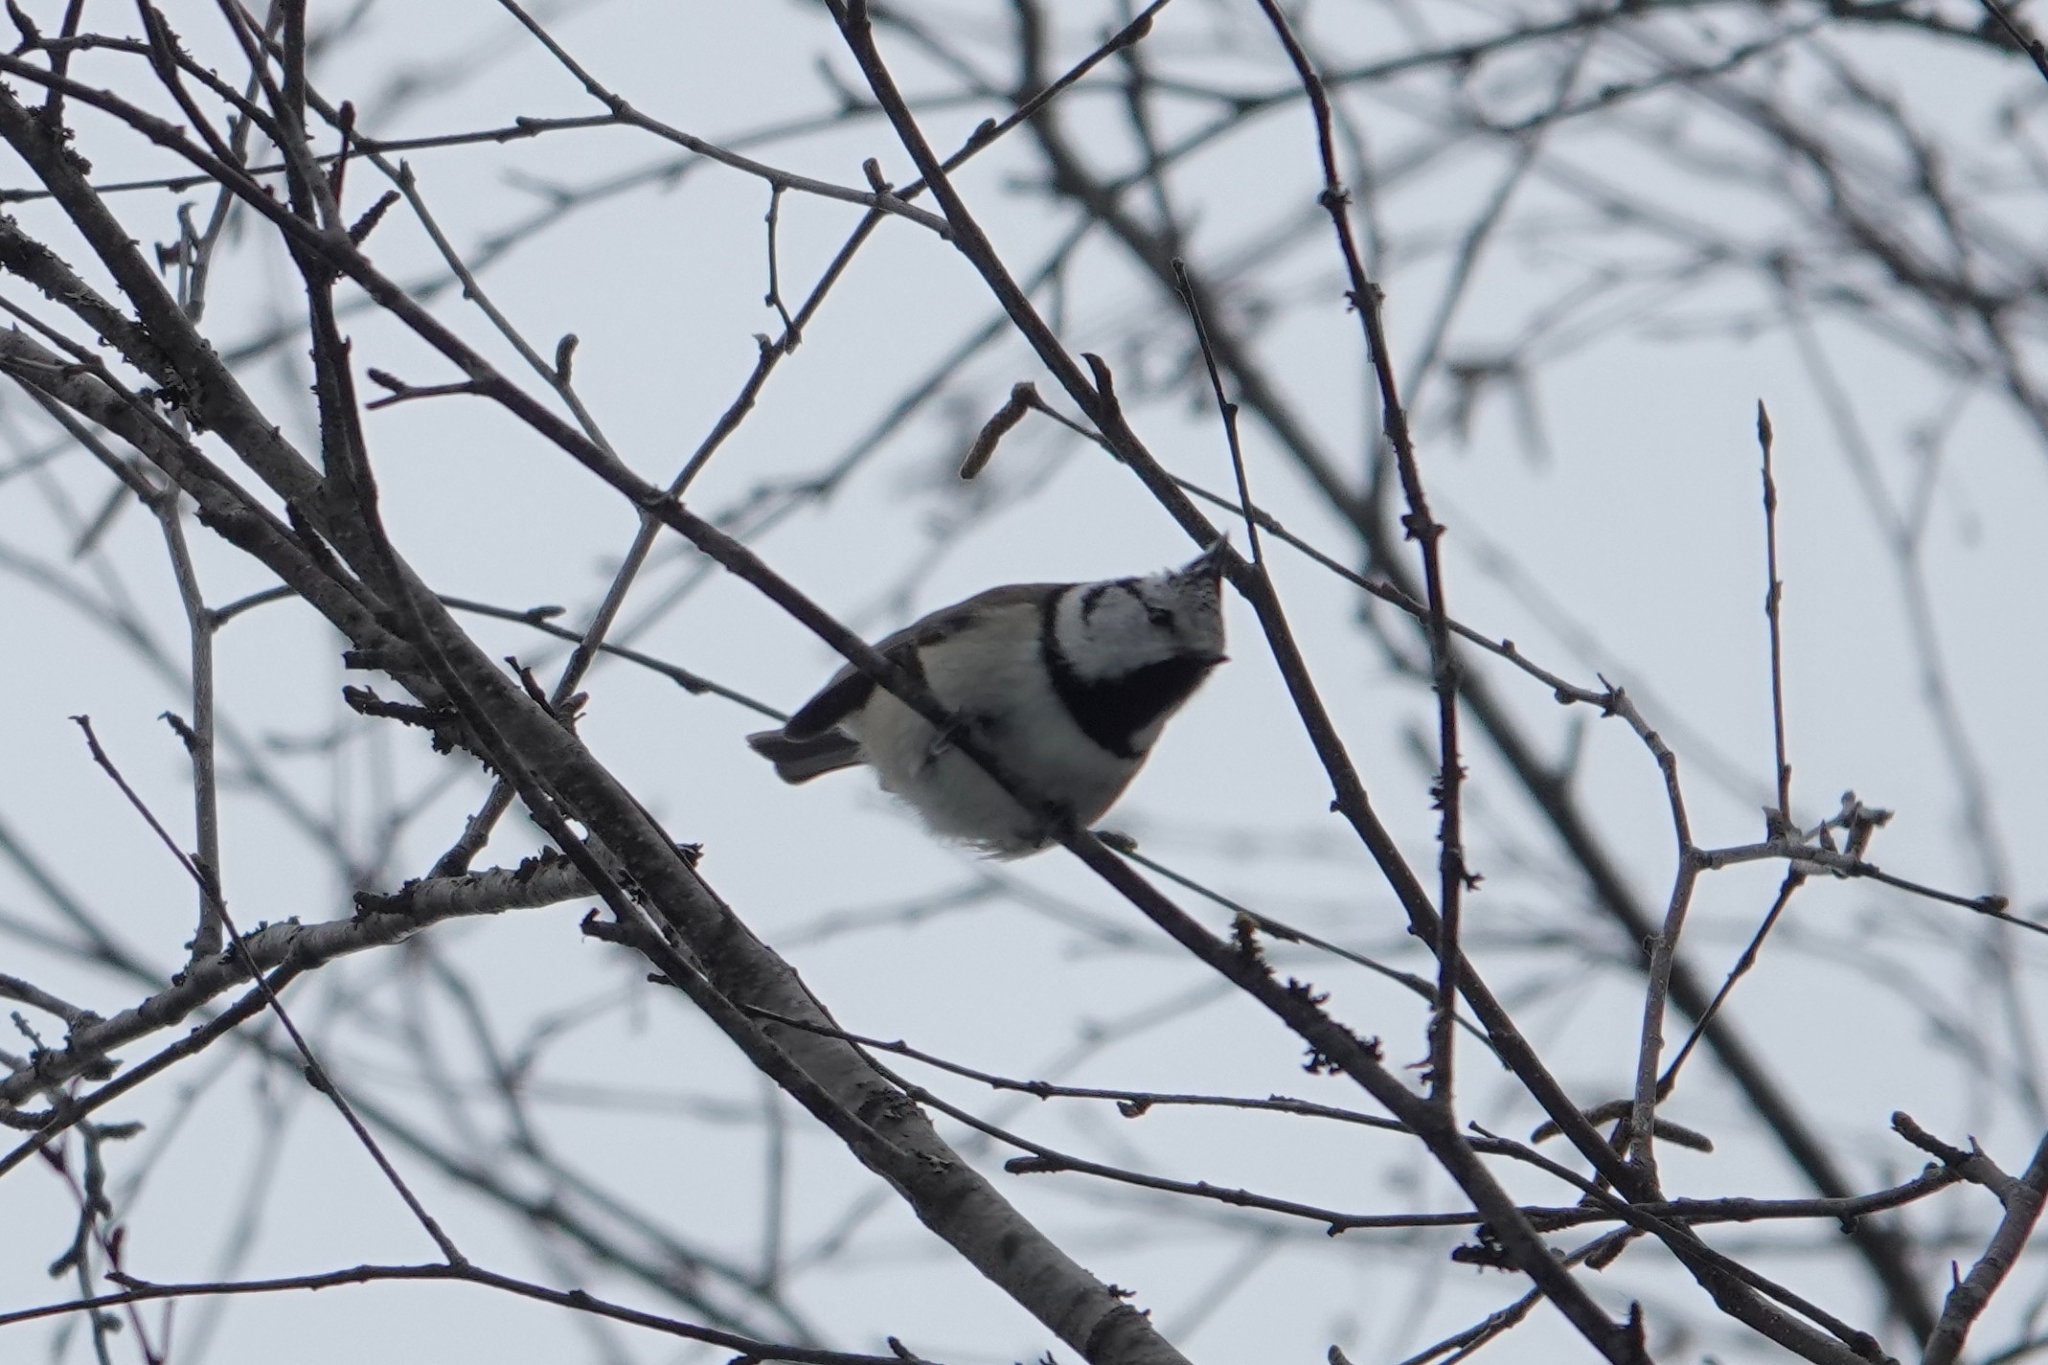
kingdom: Animalia
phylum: Chordata
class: Aves
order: Passeriformes
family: Paridae
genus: Lophophanes
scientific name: Lophophanes cristatus
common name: European crested tit
